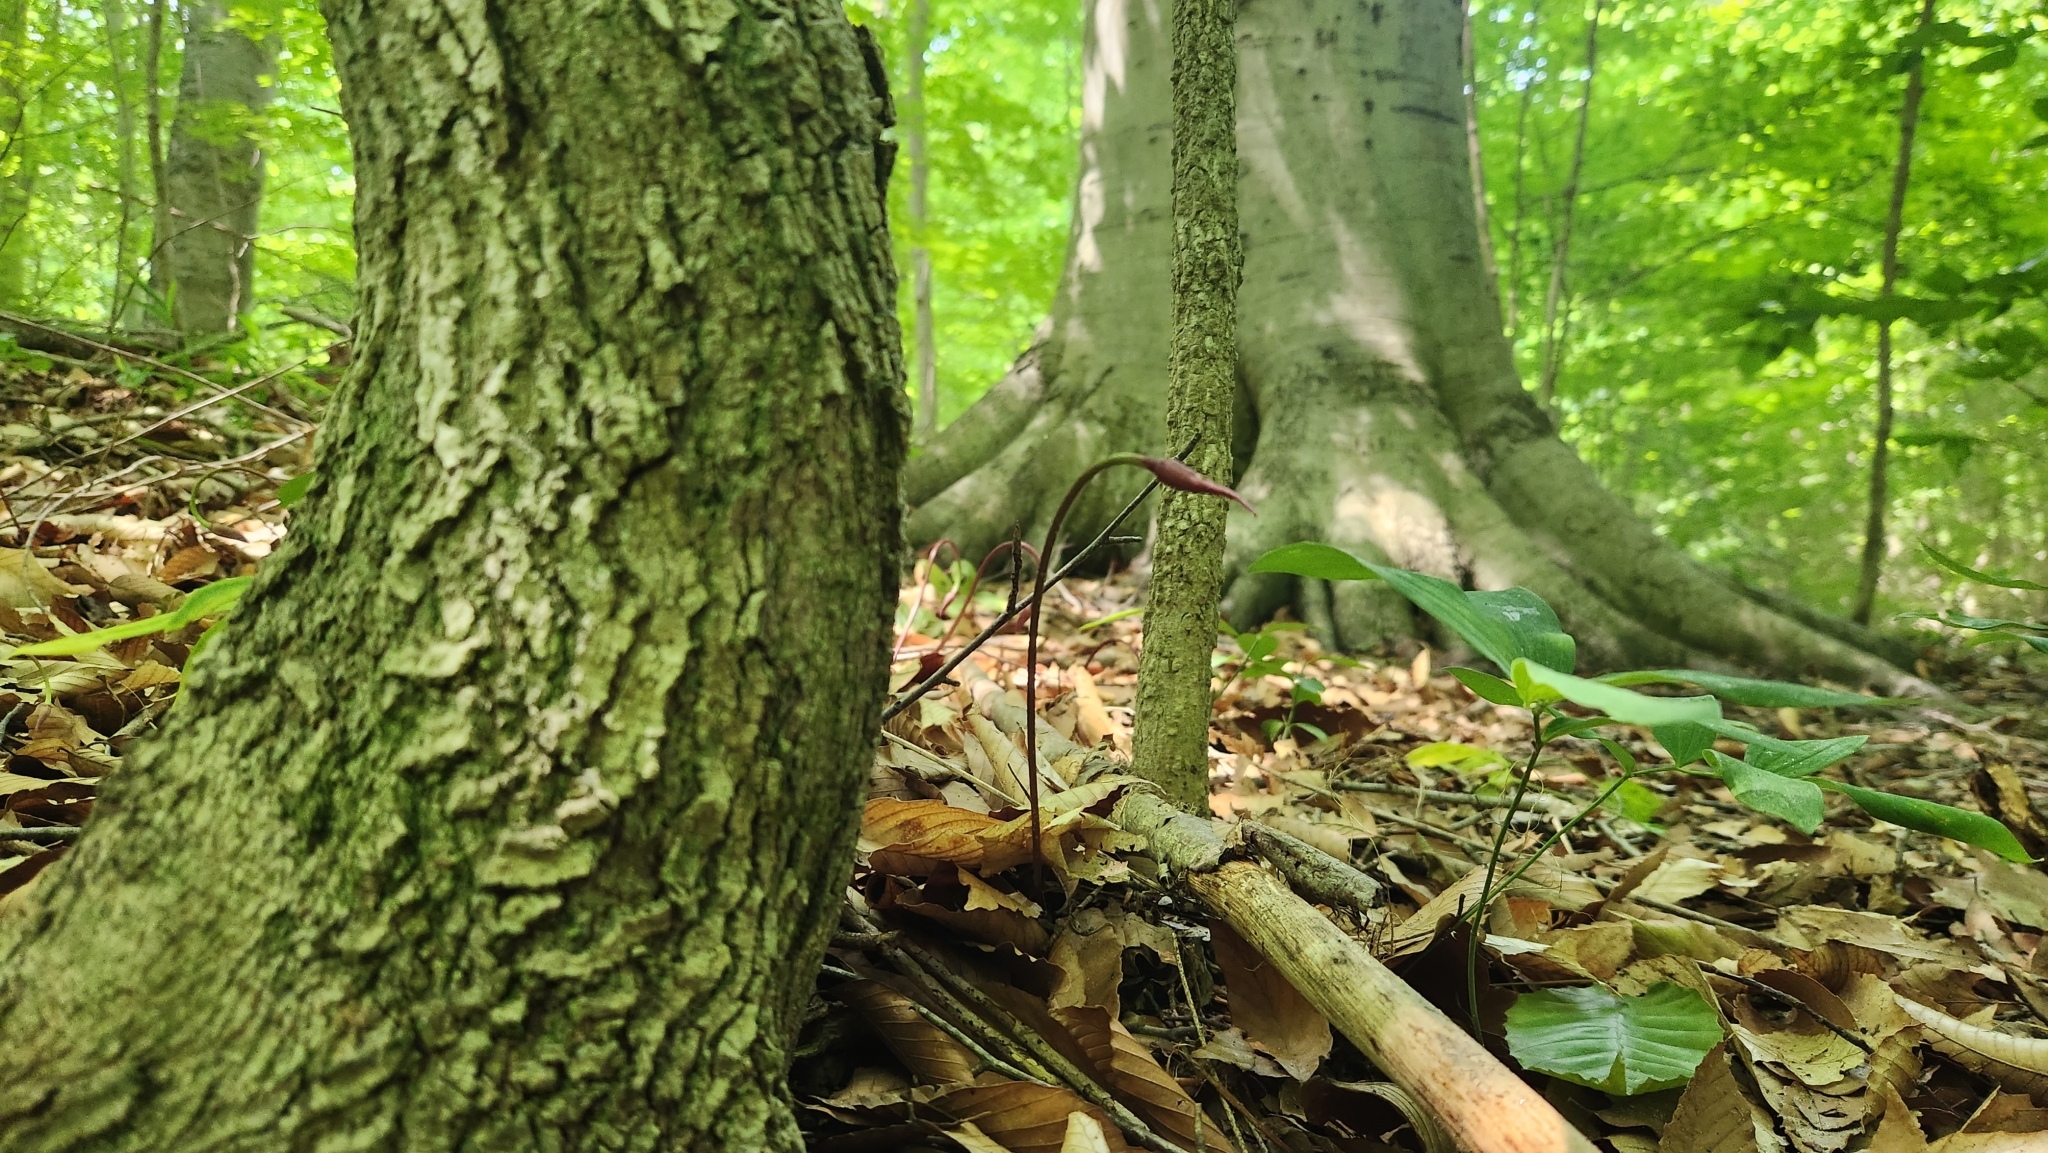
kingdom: Plantae
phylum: Tracheophyta
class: Liliopsida
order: Asparagales
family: Amaryllidaceae
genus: Allium
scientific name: Allium tricoccum
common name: Ramp
